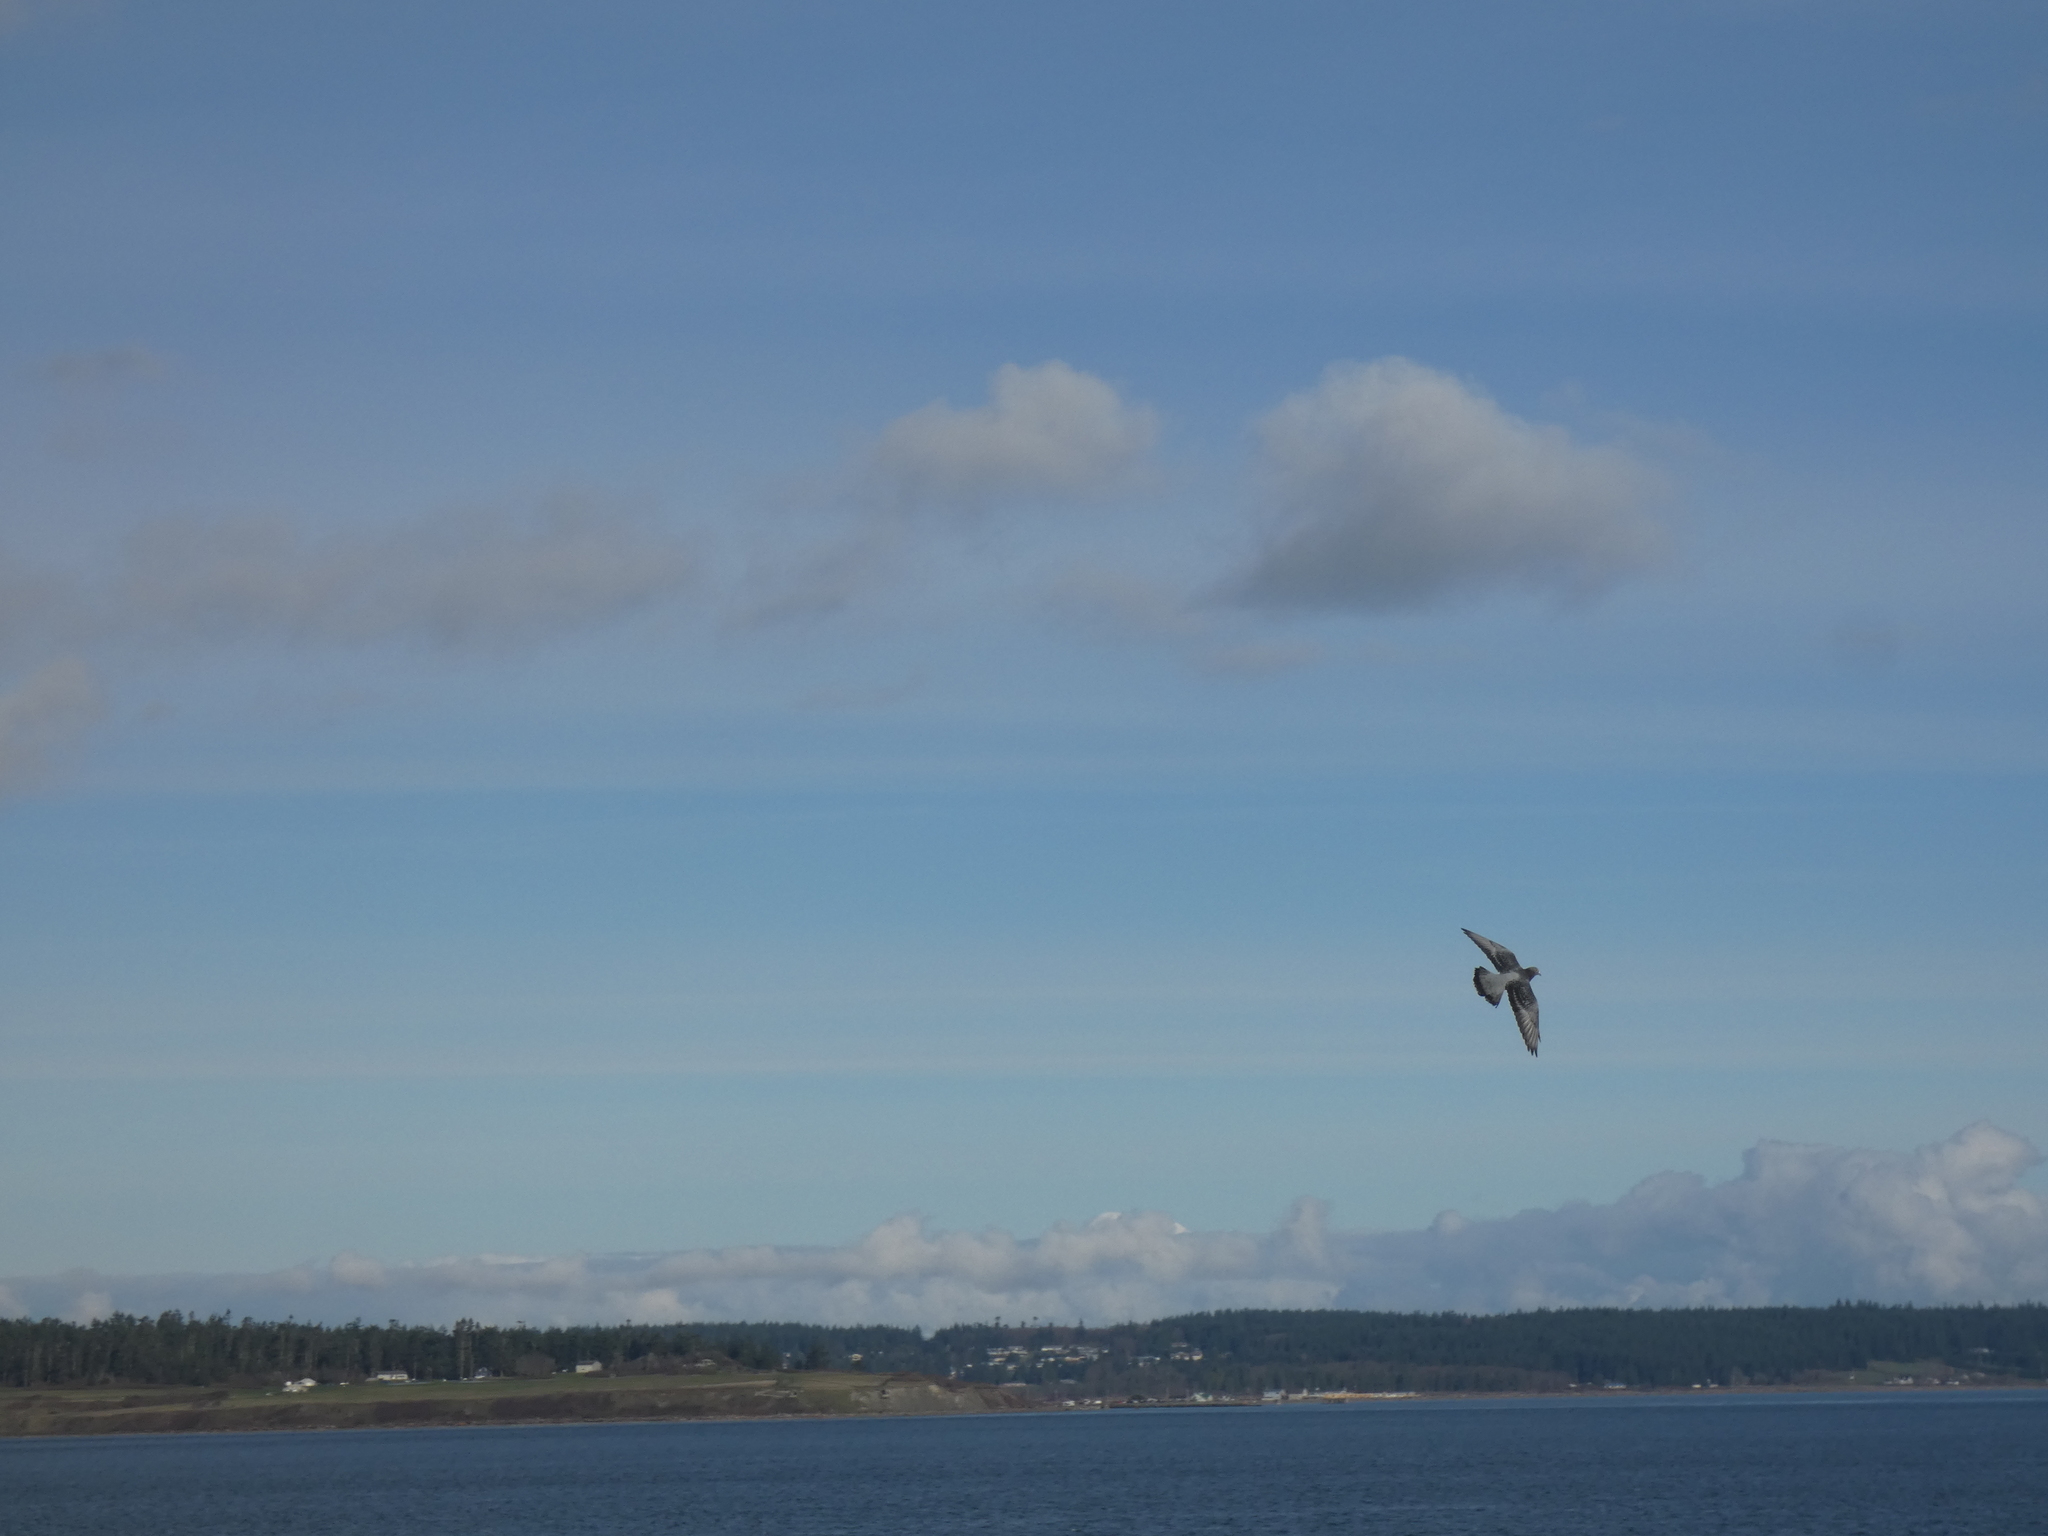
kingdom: Animalia
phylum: Chordata
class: Aves
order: Columbiformes
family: Columbidae
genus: Columba
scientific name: Columba livia
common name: Rock pigeon
